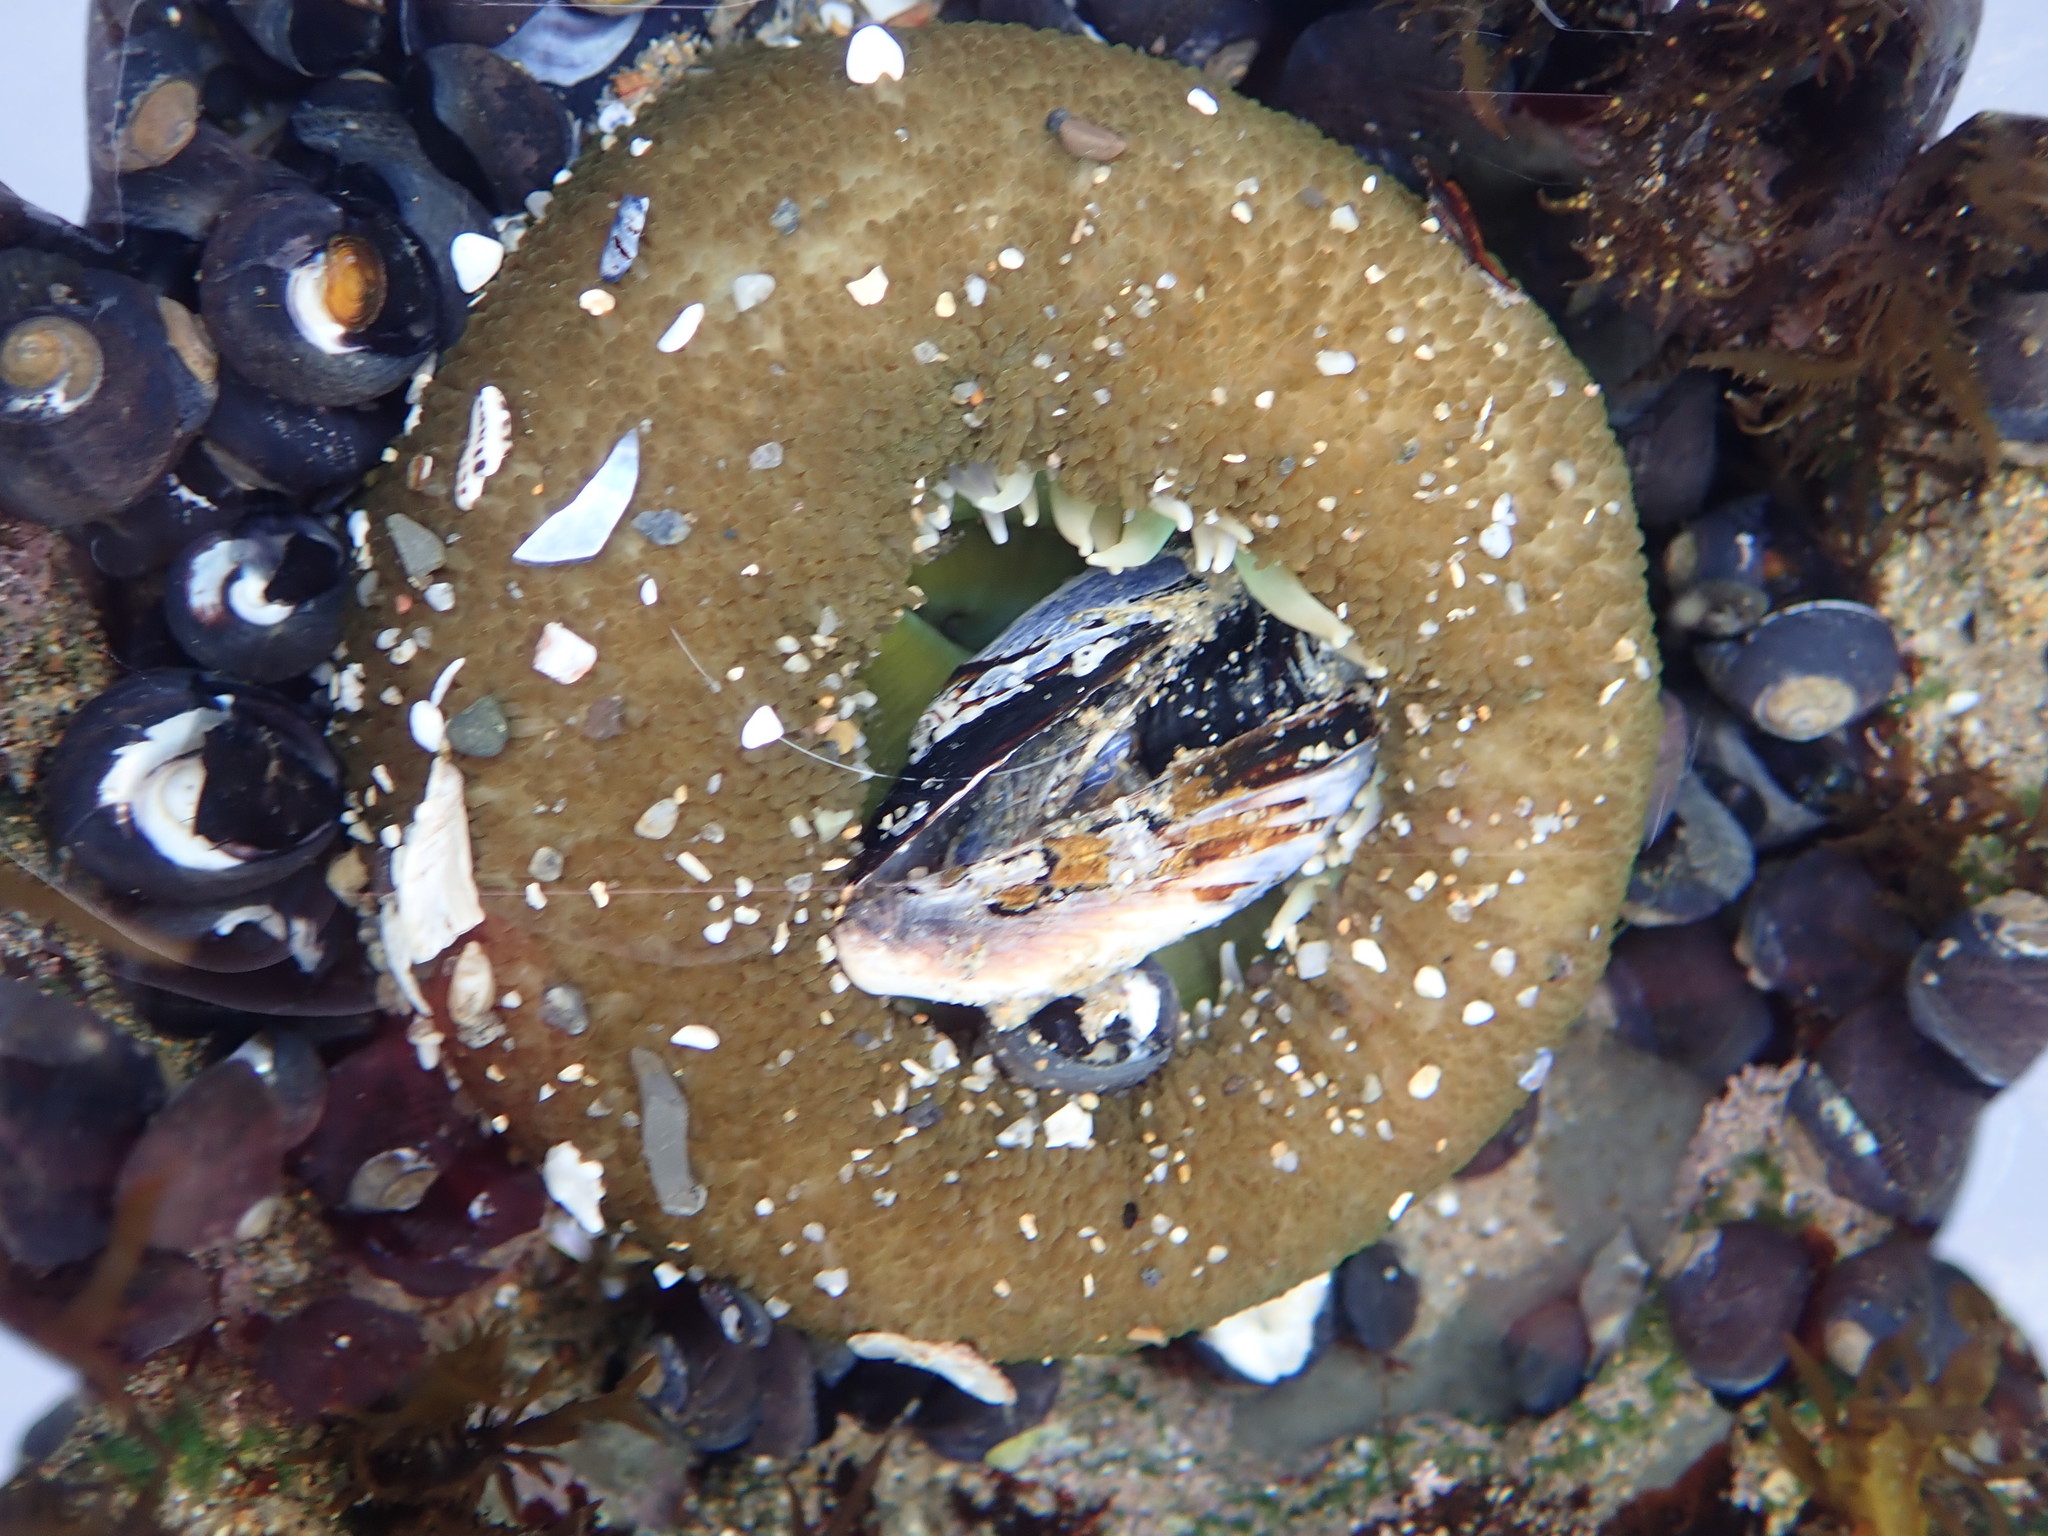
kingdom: Animalia
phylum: Cnidaria
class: Anthozoa
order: Actiniaria
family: Actiniidae
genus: Anthopleura
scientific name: Anthopleura xanthogrammica
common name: Giant green anemone
